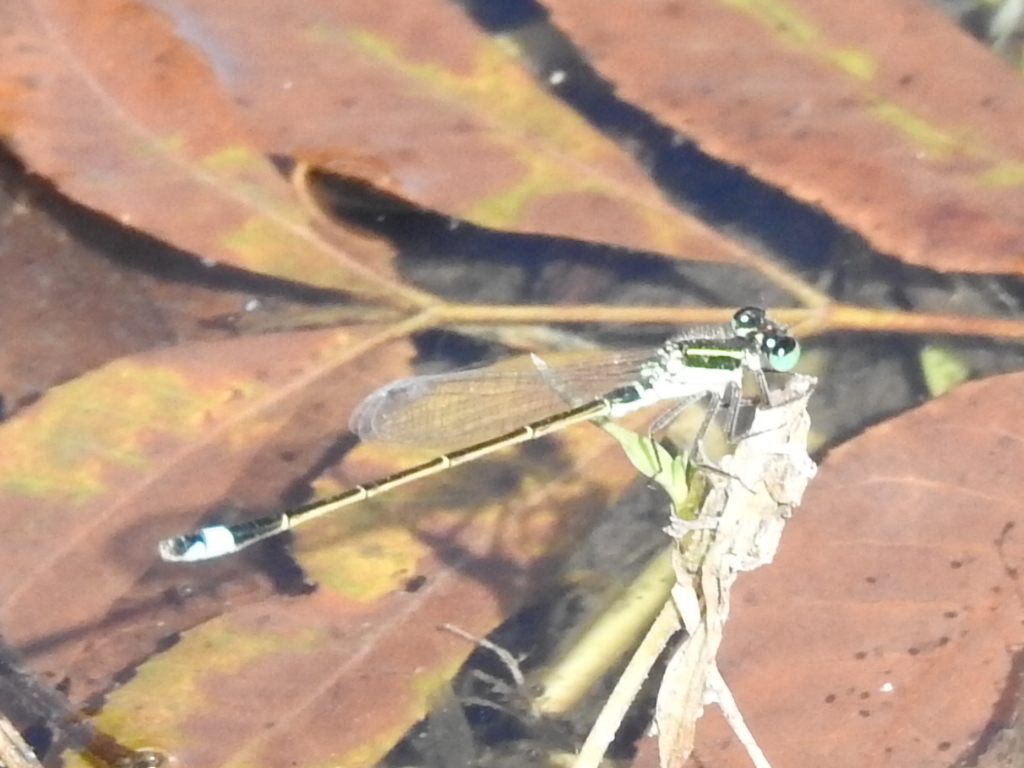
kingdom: Animalia
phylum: Arthropoda
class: Insecta
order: Odonata
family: Coenagrionidae
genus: Ischnura
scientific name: Ischnura ramburii
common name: Rambur's forktail
